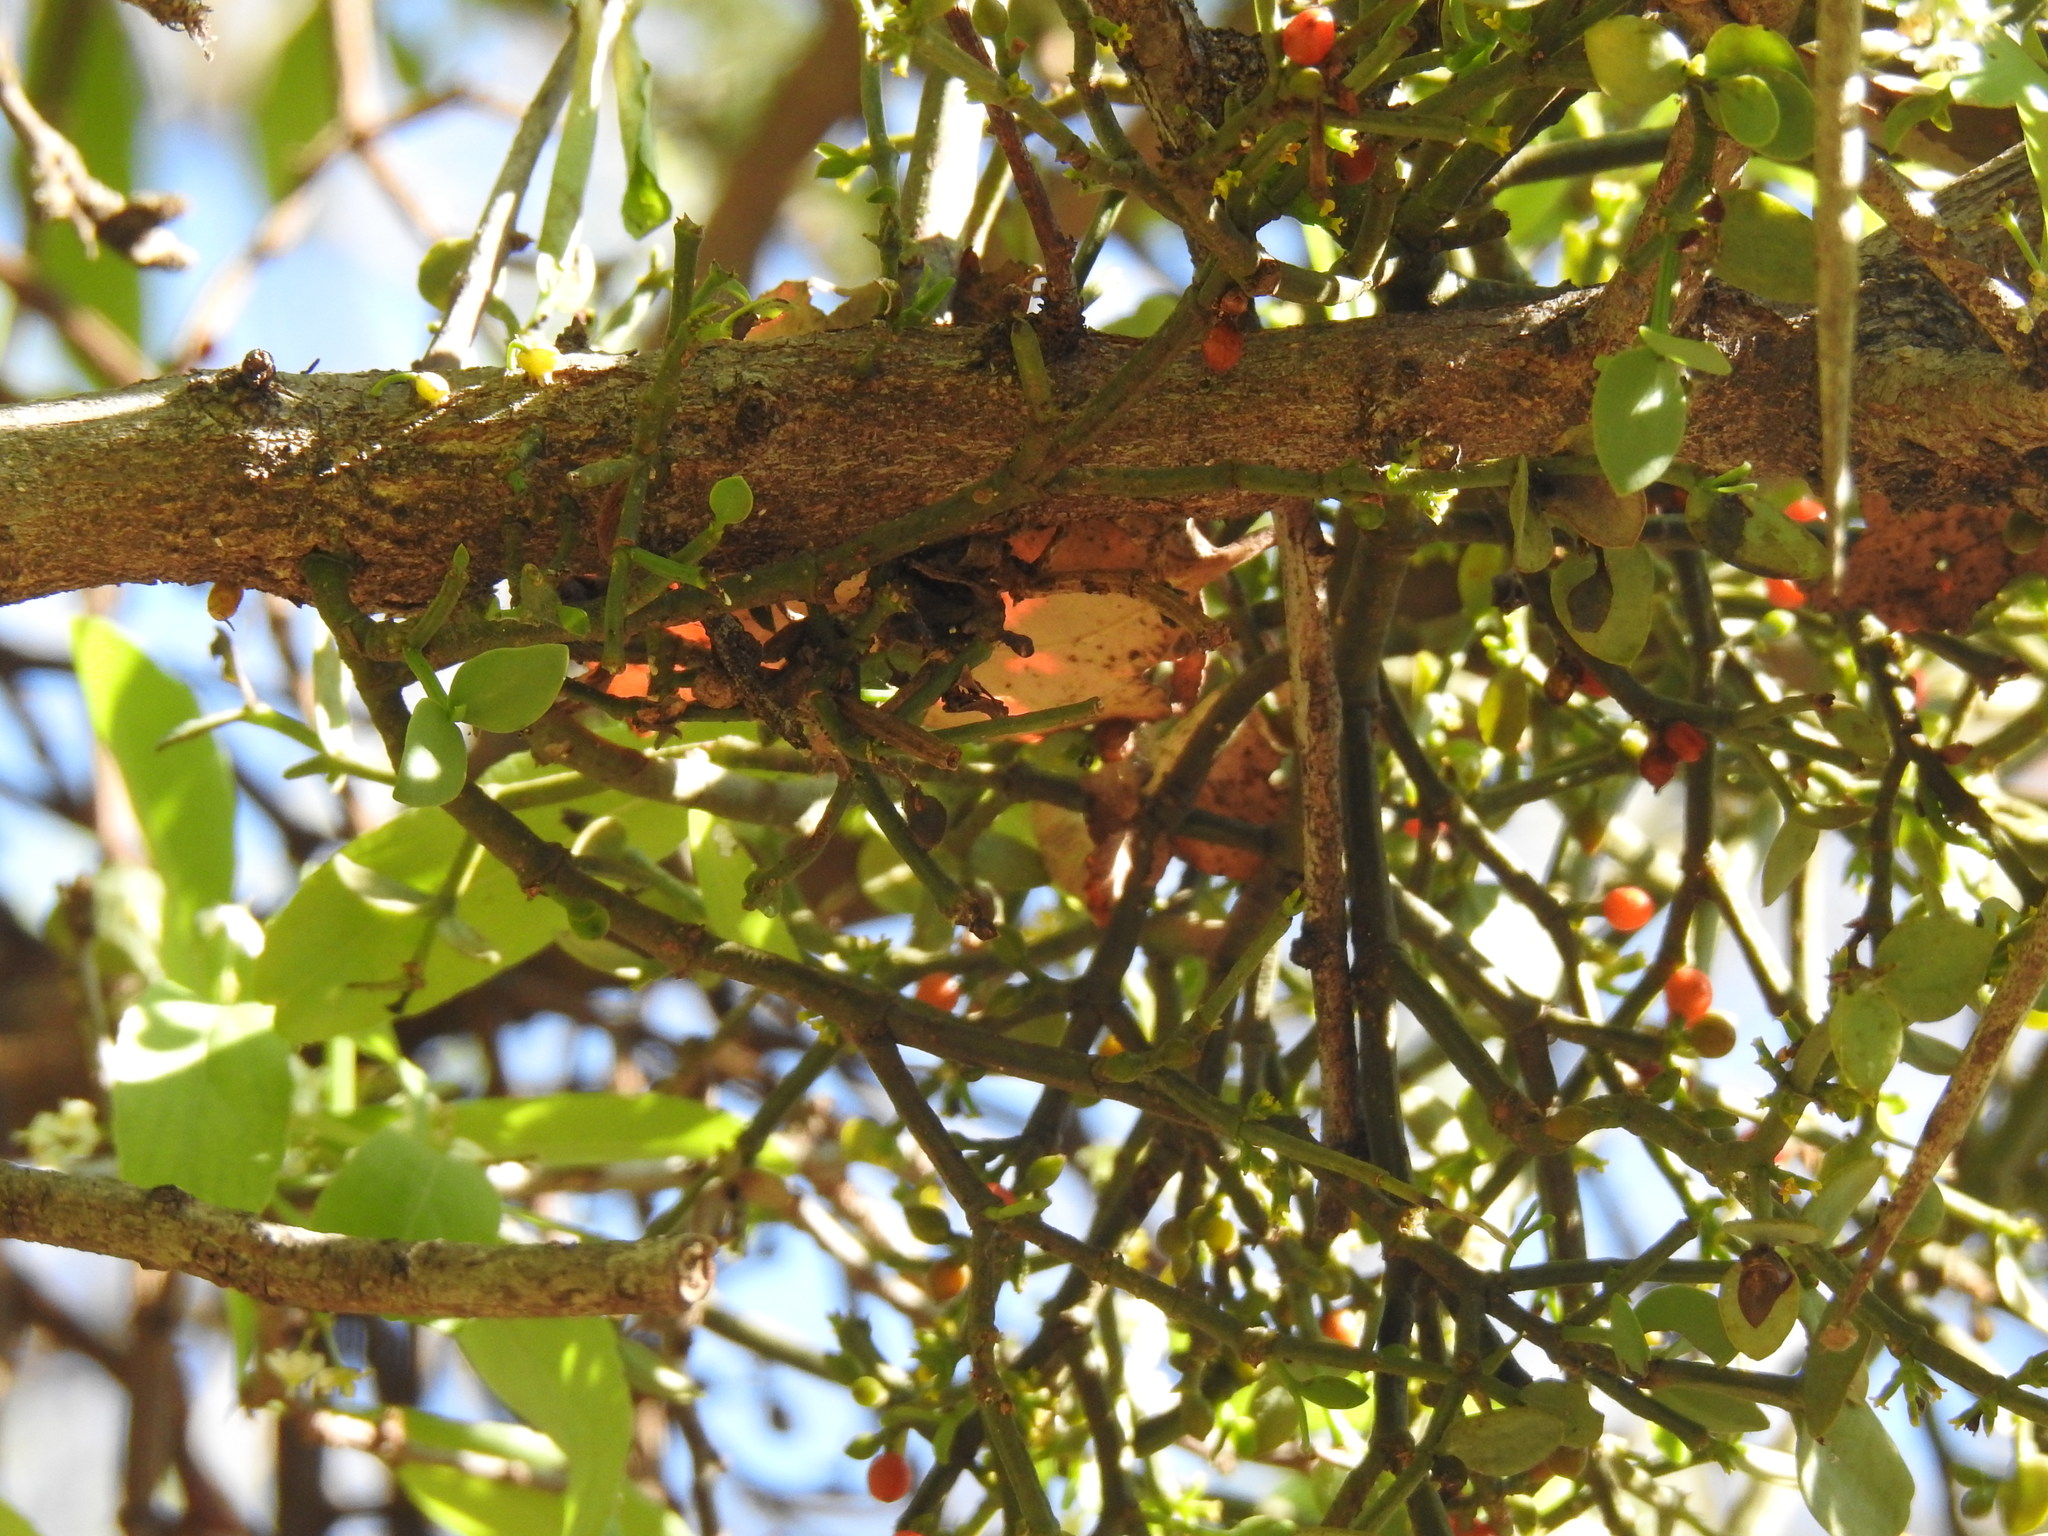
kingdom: Plantae
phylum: Tracheophyta
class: Magnoliopsida
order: Santalales
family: Viscaceae
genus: Viscum
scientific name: Viscum rotundifolium
